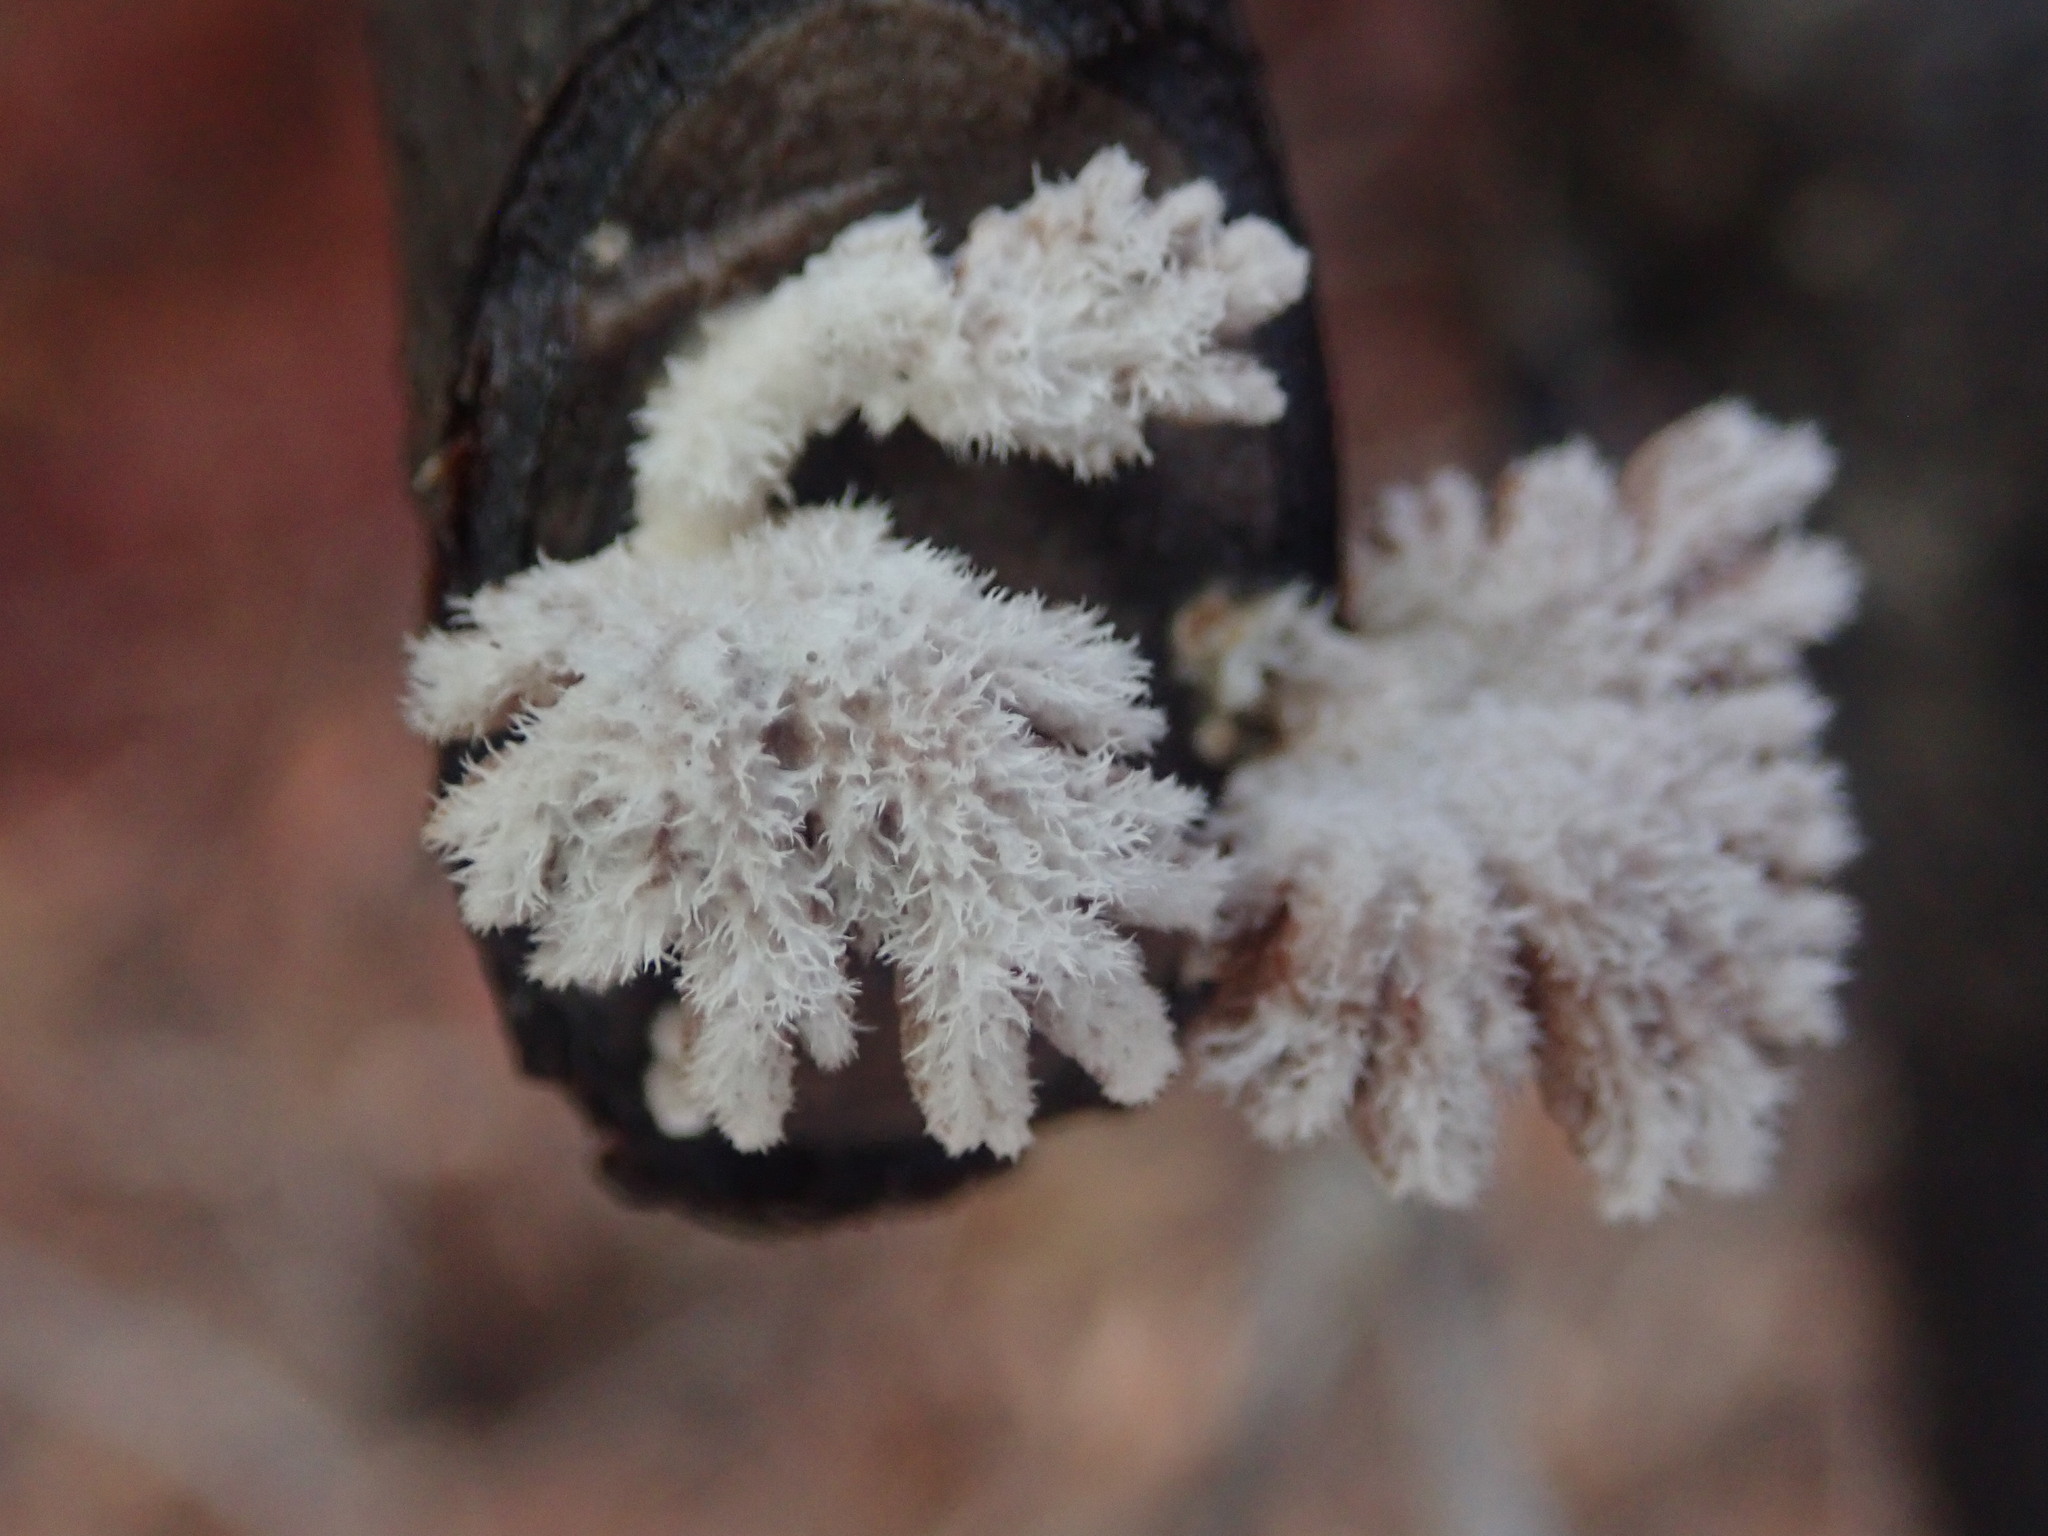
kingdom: Fungi
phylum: Basidiomycota
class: Agaricomycetes
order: Agaricales
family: Schizophyllaceae
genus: Schizophyllum
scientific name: Schizophyllum commune
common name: Common porecrust
